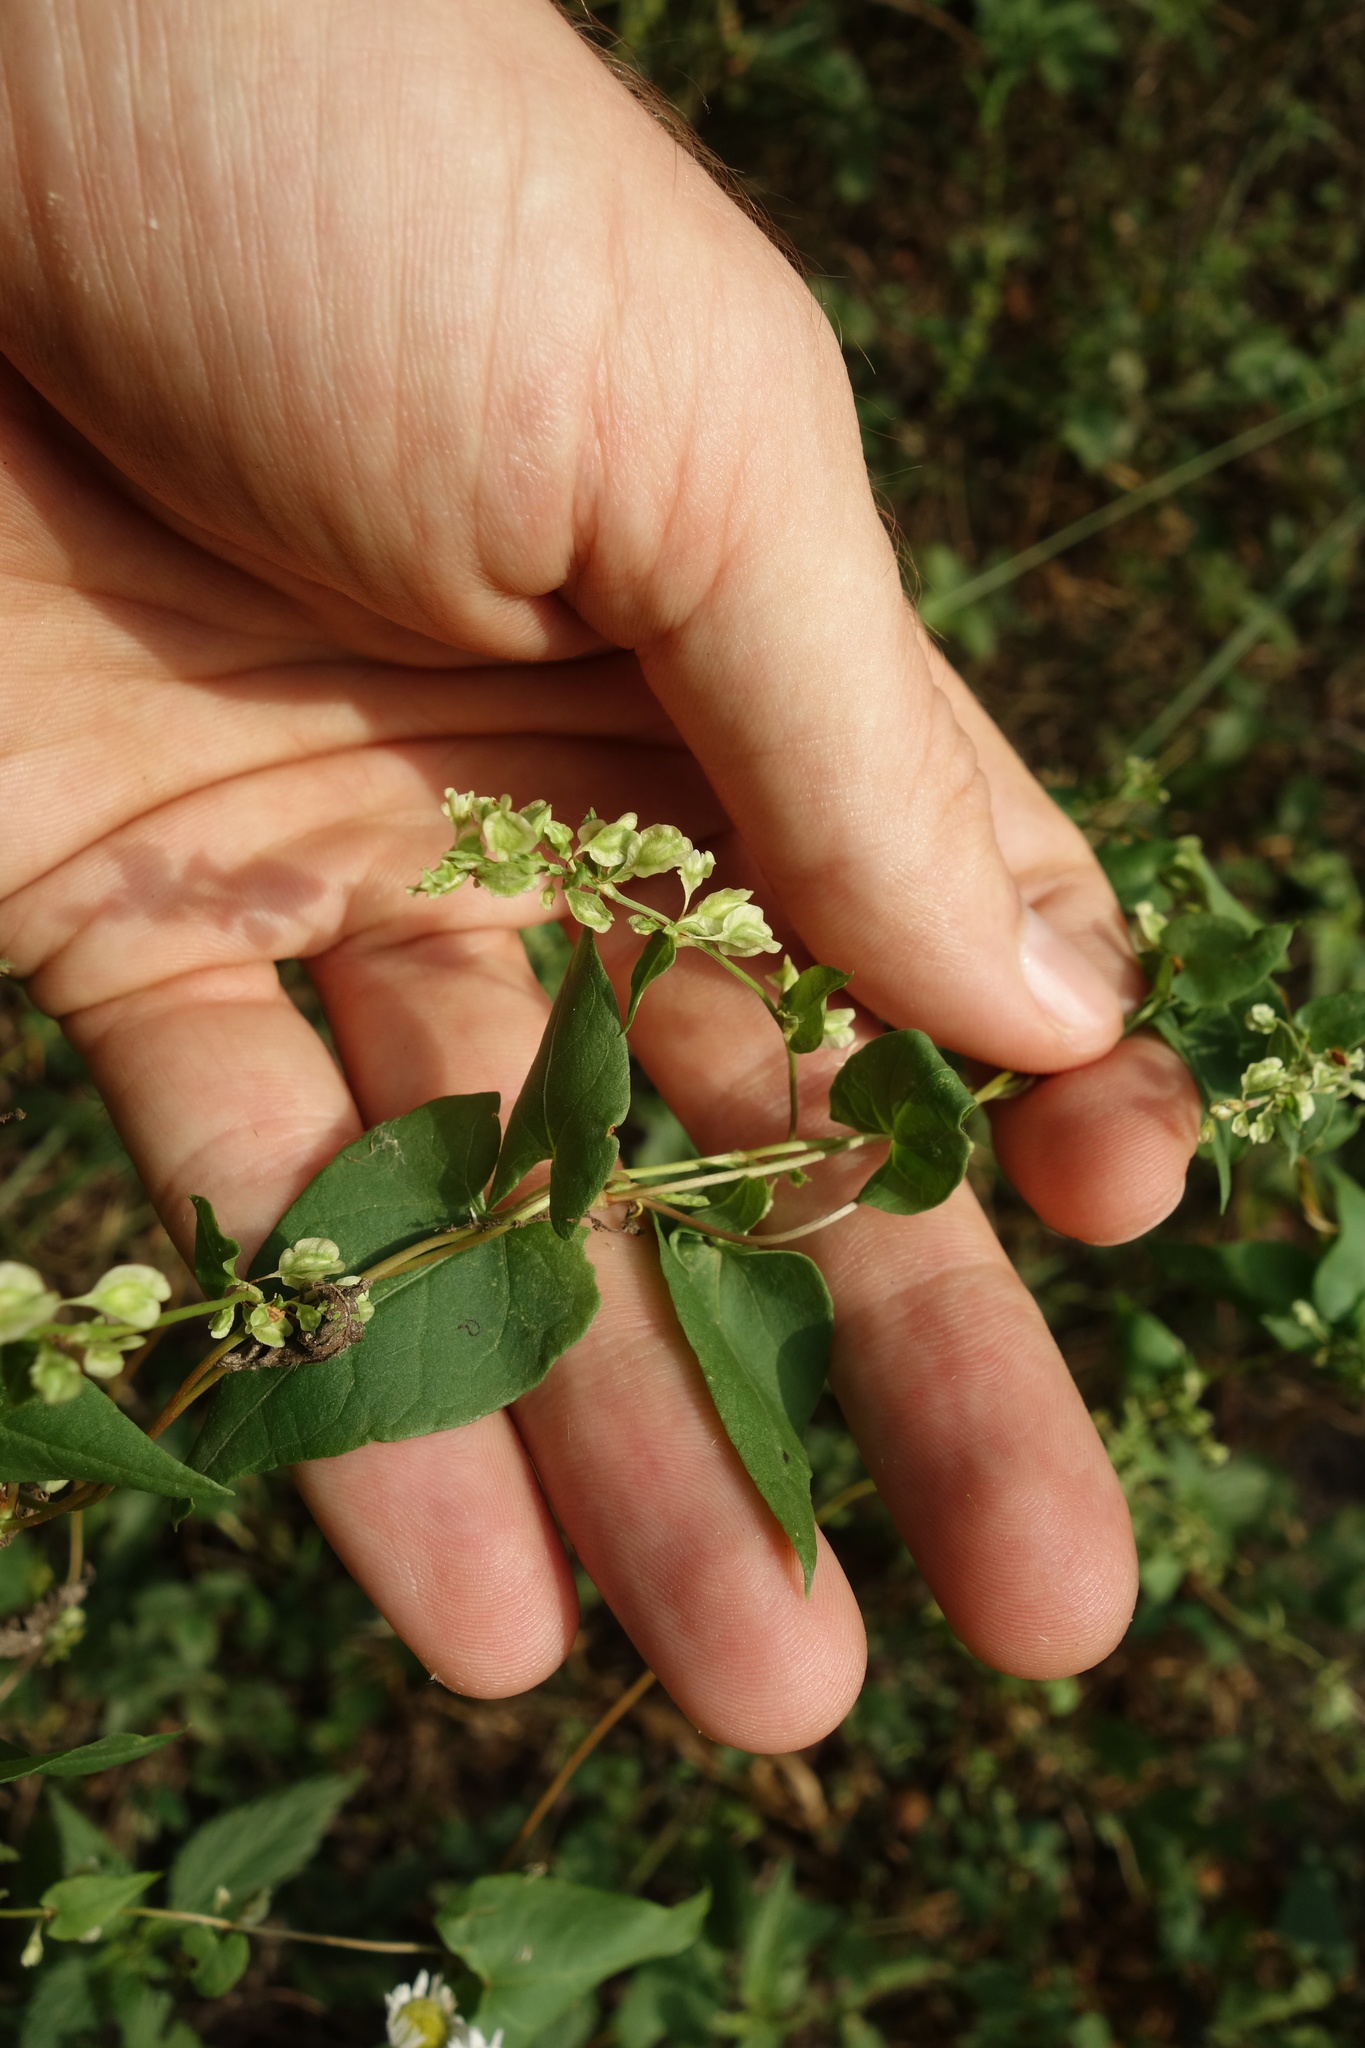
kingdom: Plantae
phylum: Tracheophyta
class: Magnoliopsida
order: Caryophyllales
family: Polygonaceae
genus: Fallopia
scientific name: Fallopia dumetorum
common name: Copse-bindweed
